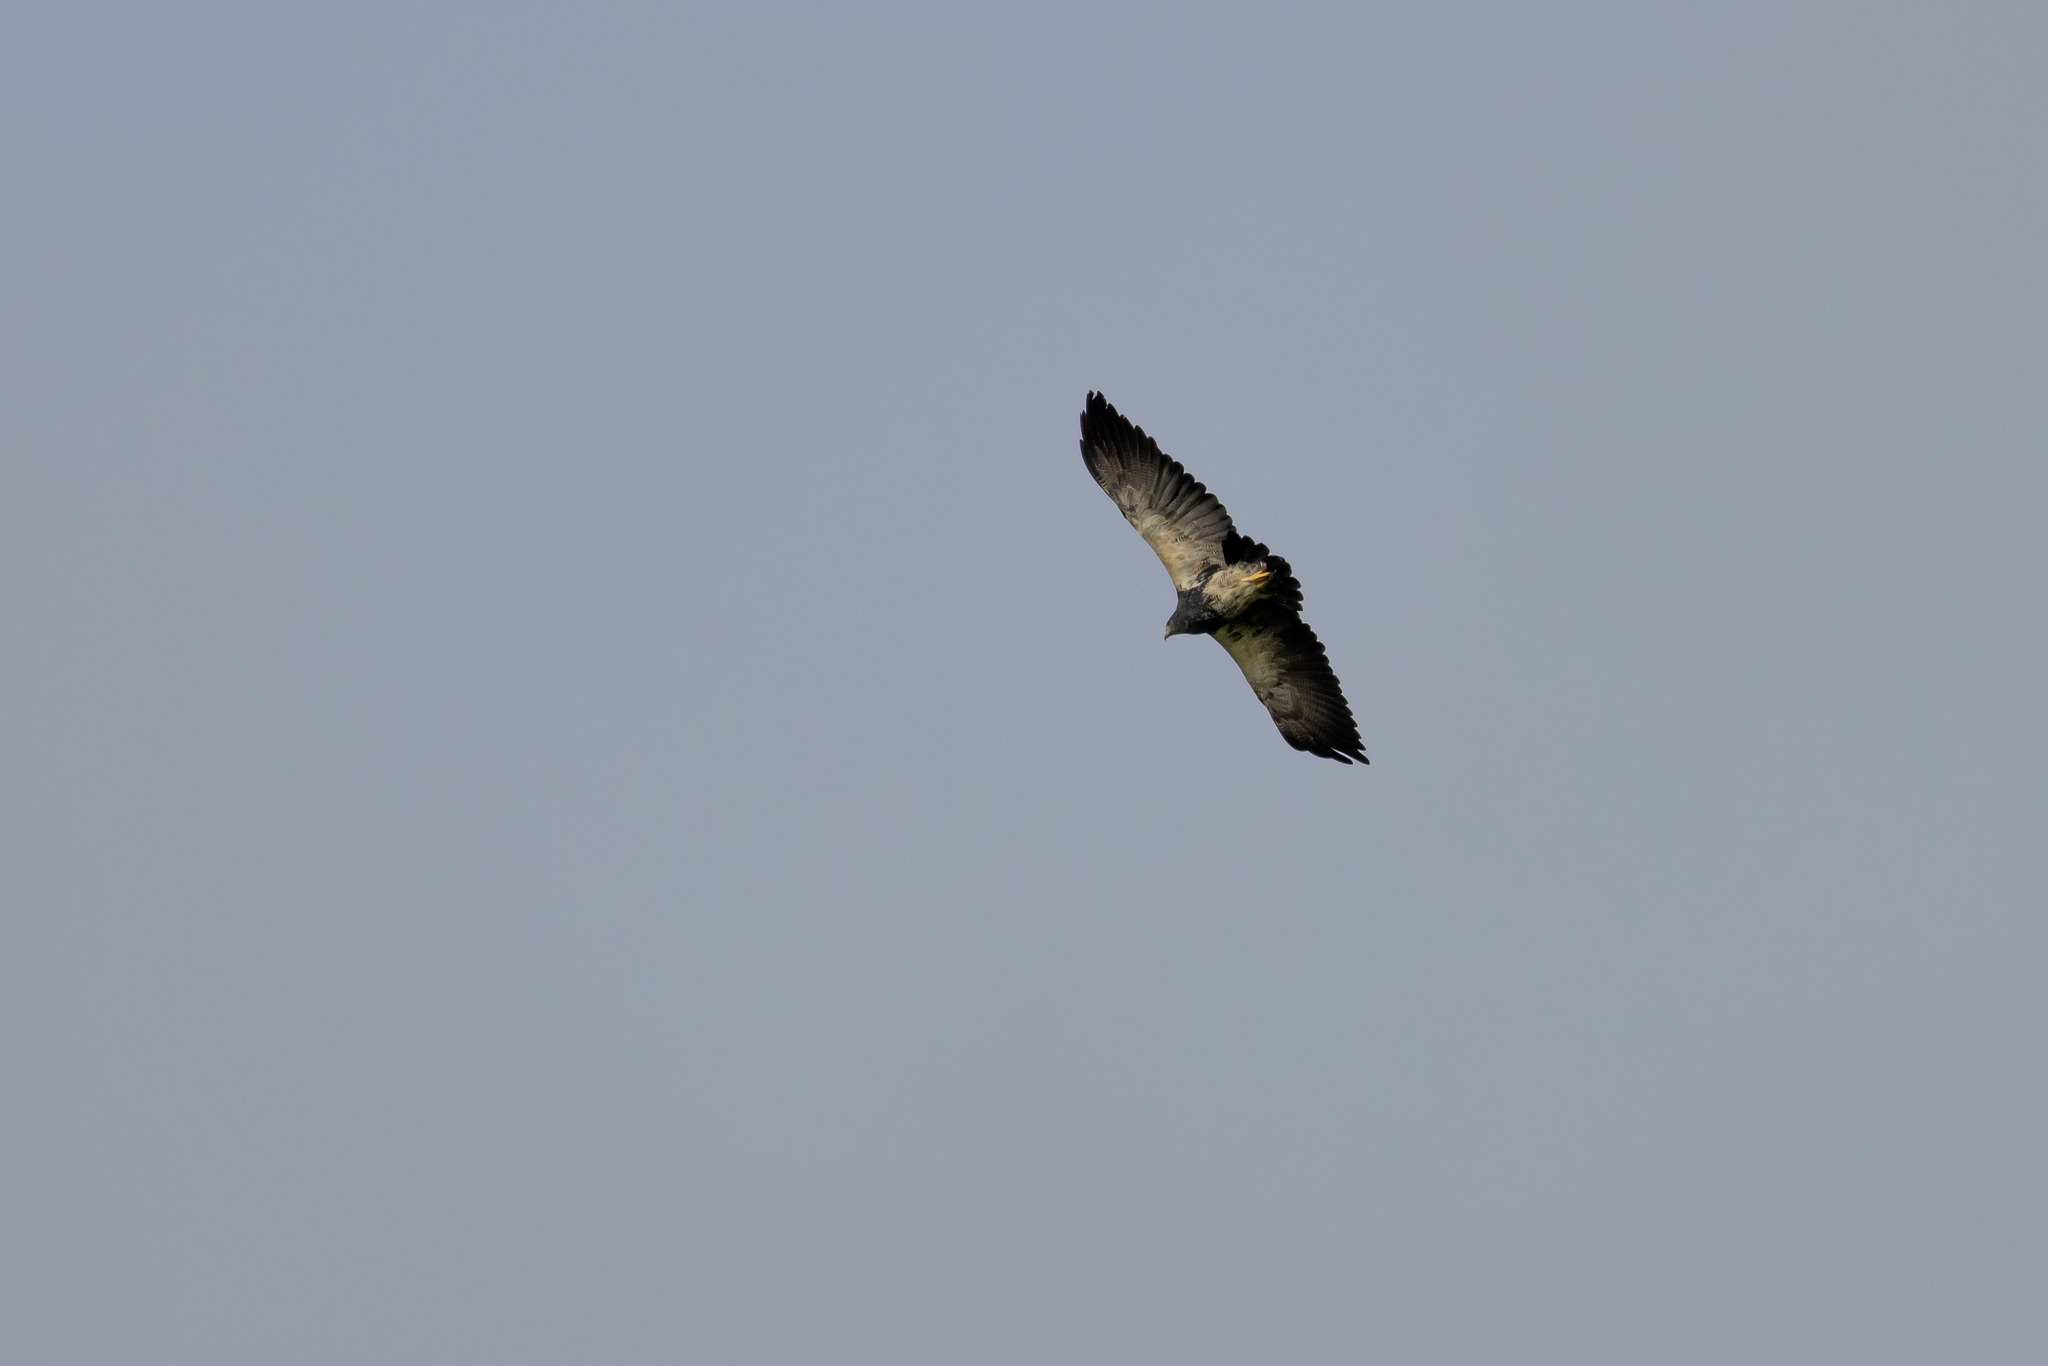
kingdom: Animalia
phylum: Chordata
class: Aves
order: Accipitriformes
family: Accipitridae
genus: Geranoaetus
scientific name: Geranoaetus melanoleucus
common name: Black-chested buzzard-eagle
